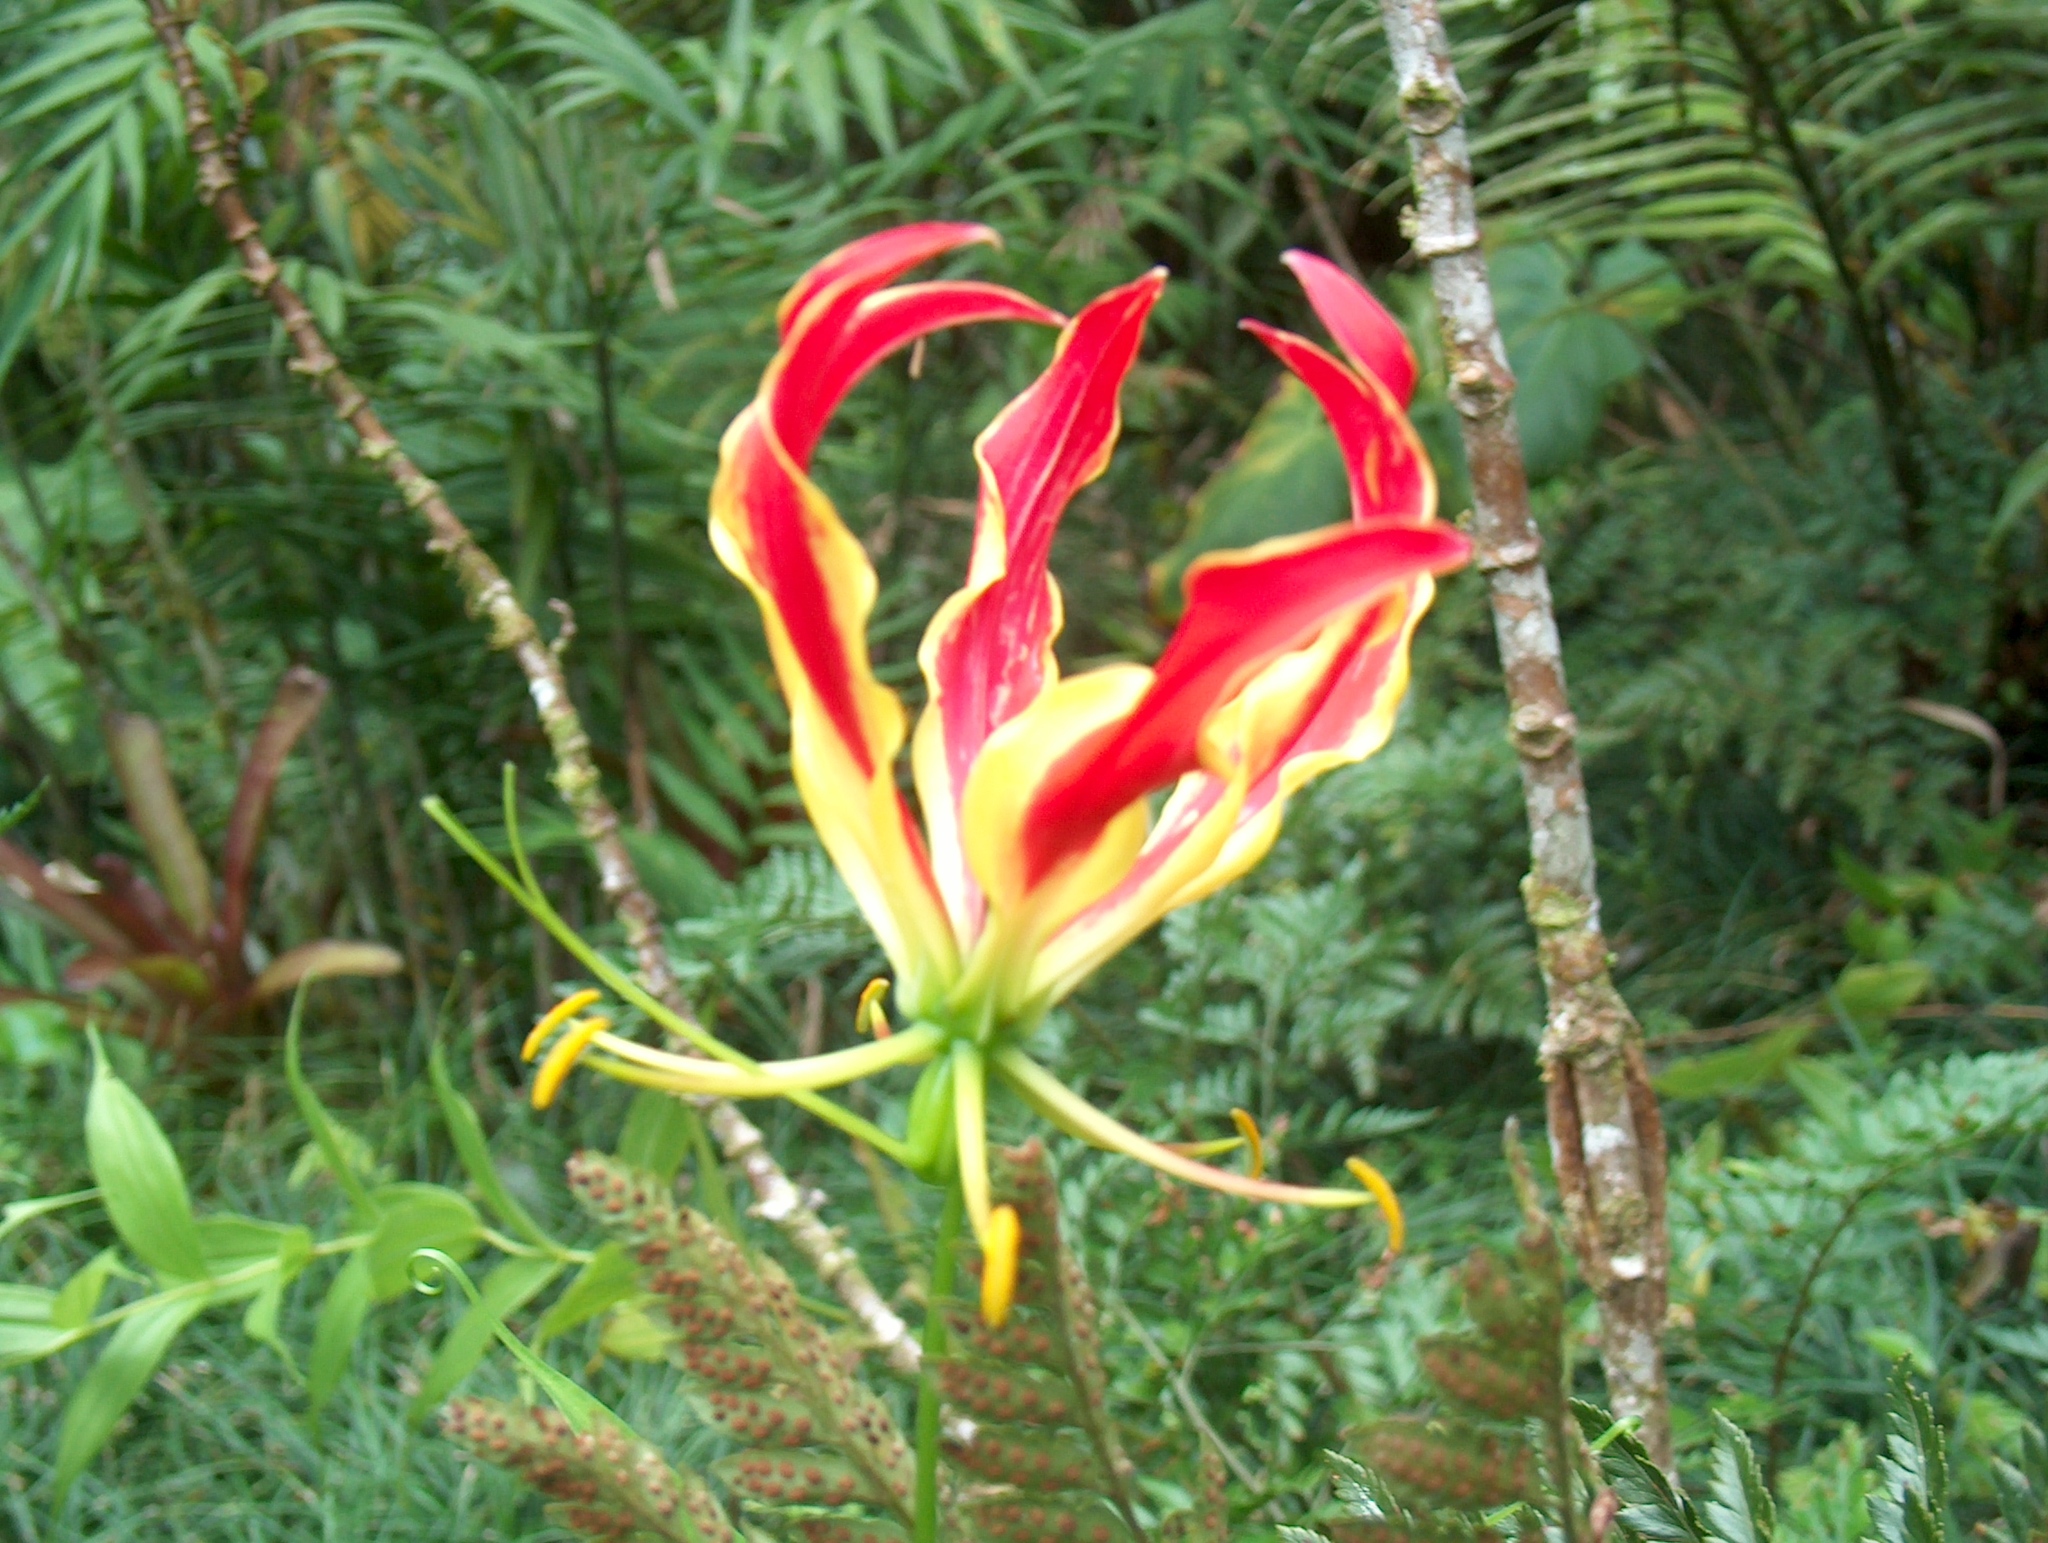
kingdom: Plantae
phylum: Tracheophyta
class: Liliopsida
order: Liliales
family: Colchicaceae
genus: Gloriosa
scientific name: Gloriosa superba
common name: Flame lily
